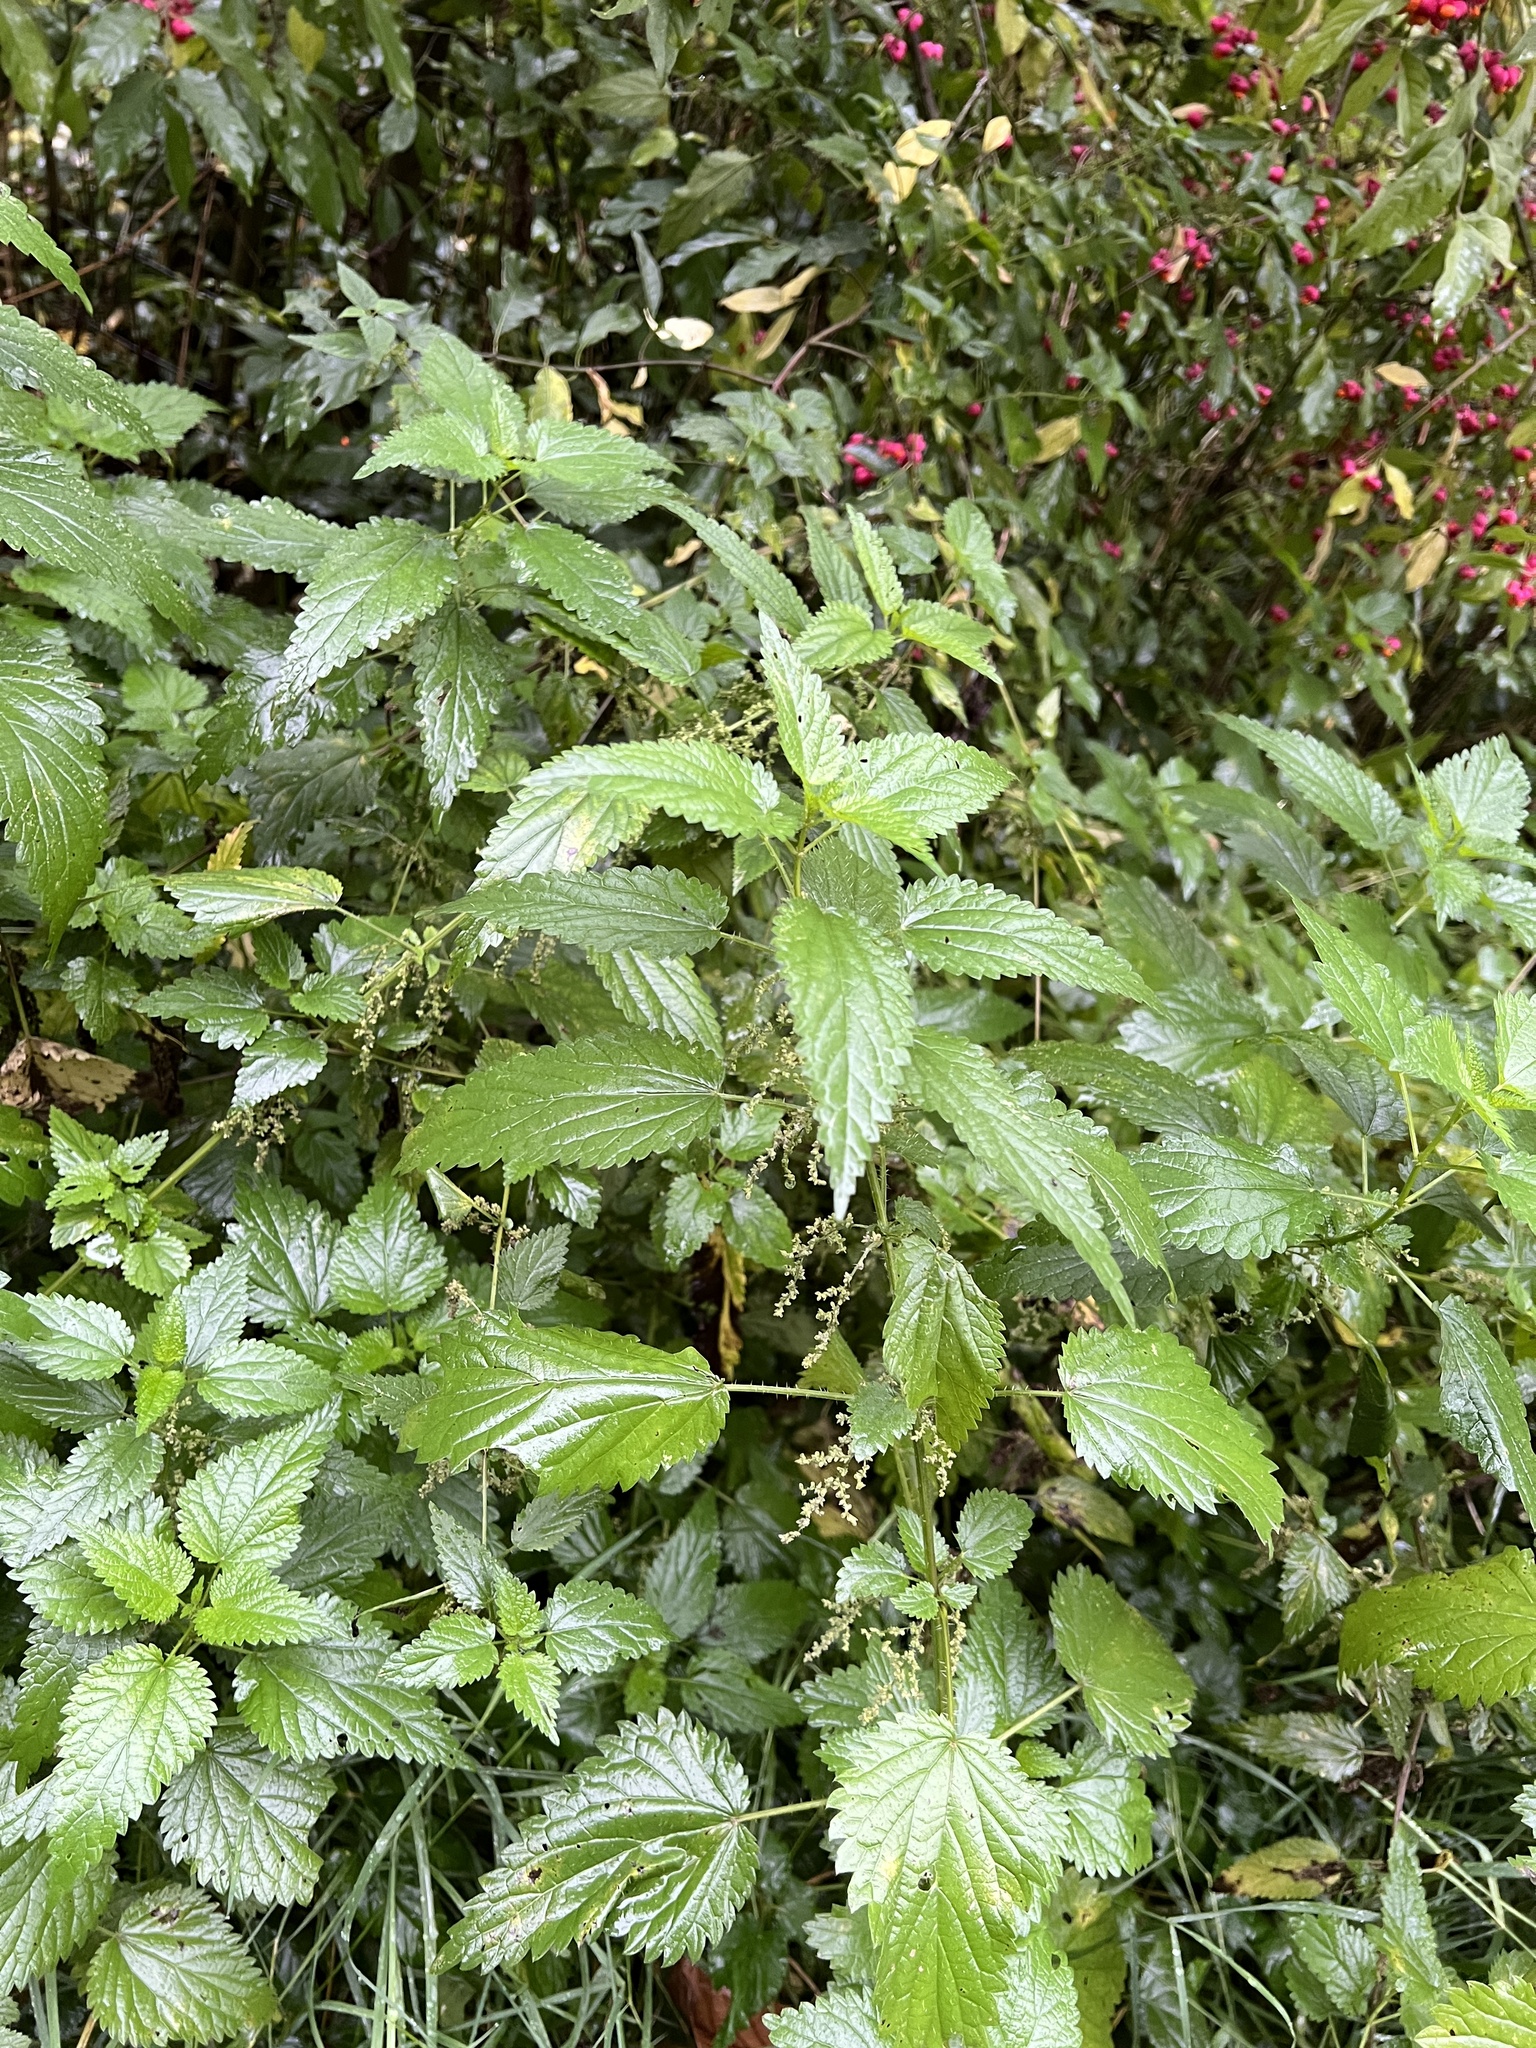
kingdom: Plantae
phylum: Tracheophyta
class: Magnoliopsida
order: Rosales
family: Urticaceae
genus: Urtica
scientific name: Urtica dioica
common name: Common nettle
